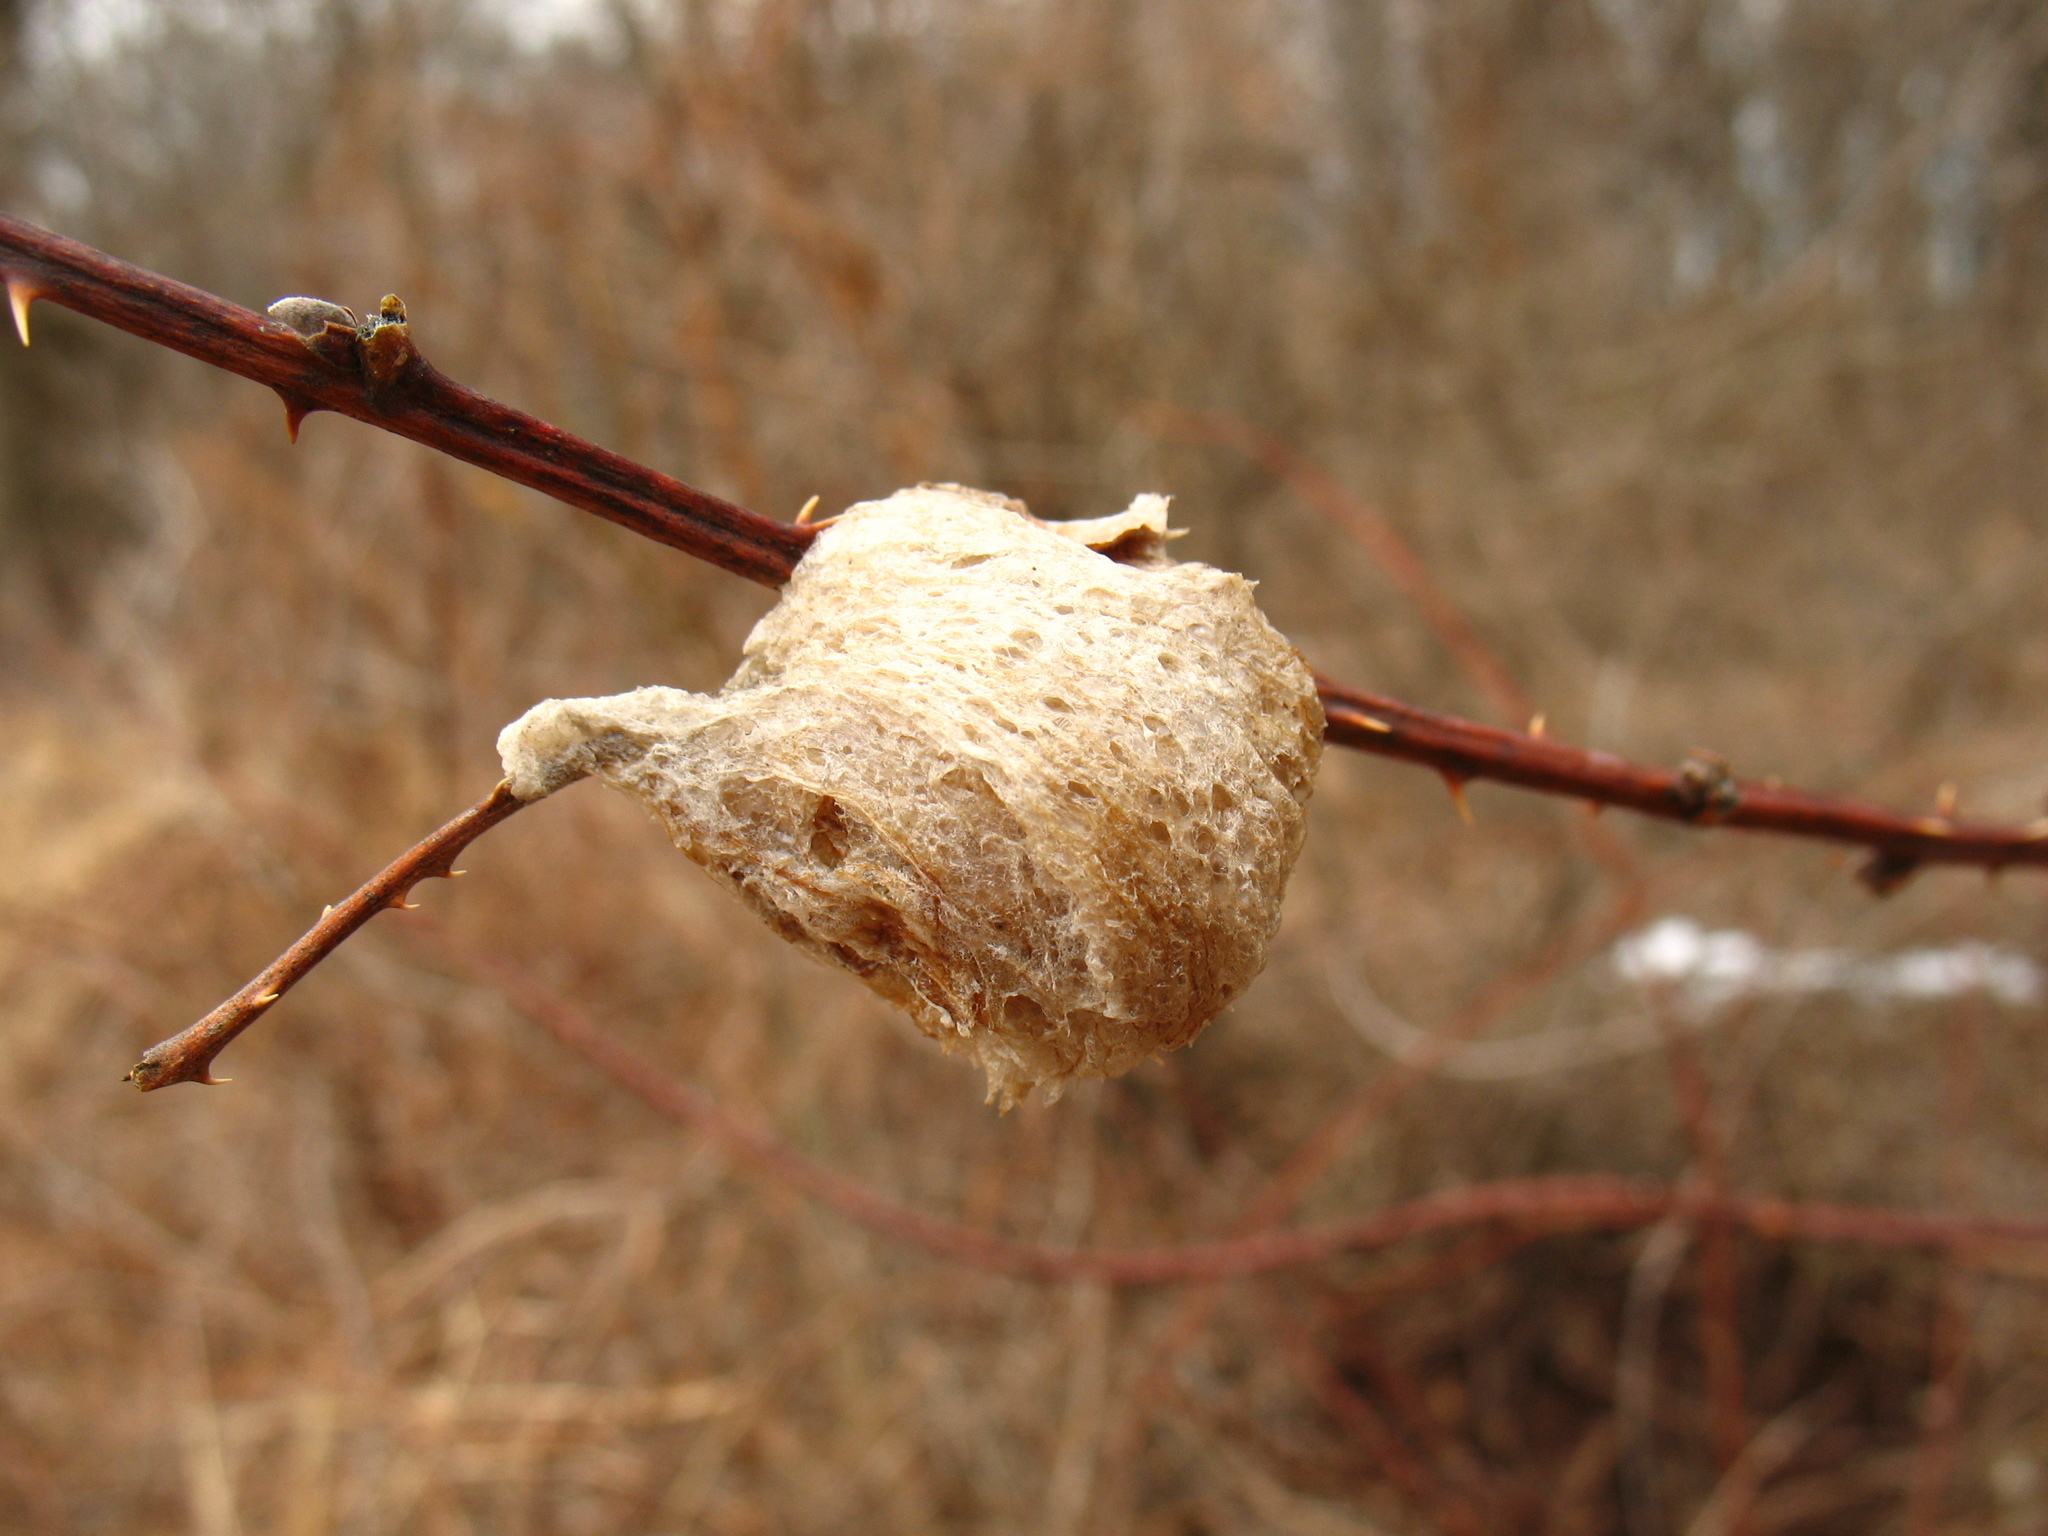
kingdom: Animalia
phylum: Arthropoda
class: Insecta
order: Mantodea
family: Mantidae
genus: Tenodera
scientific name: Tenodera sinensis
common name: Chinese mantis
